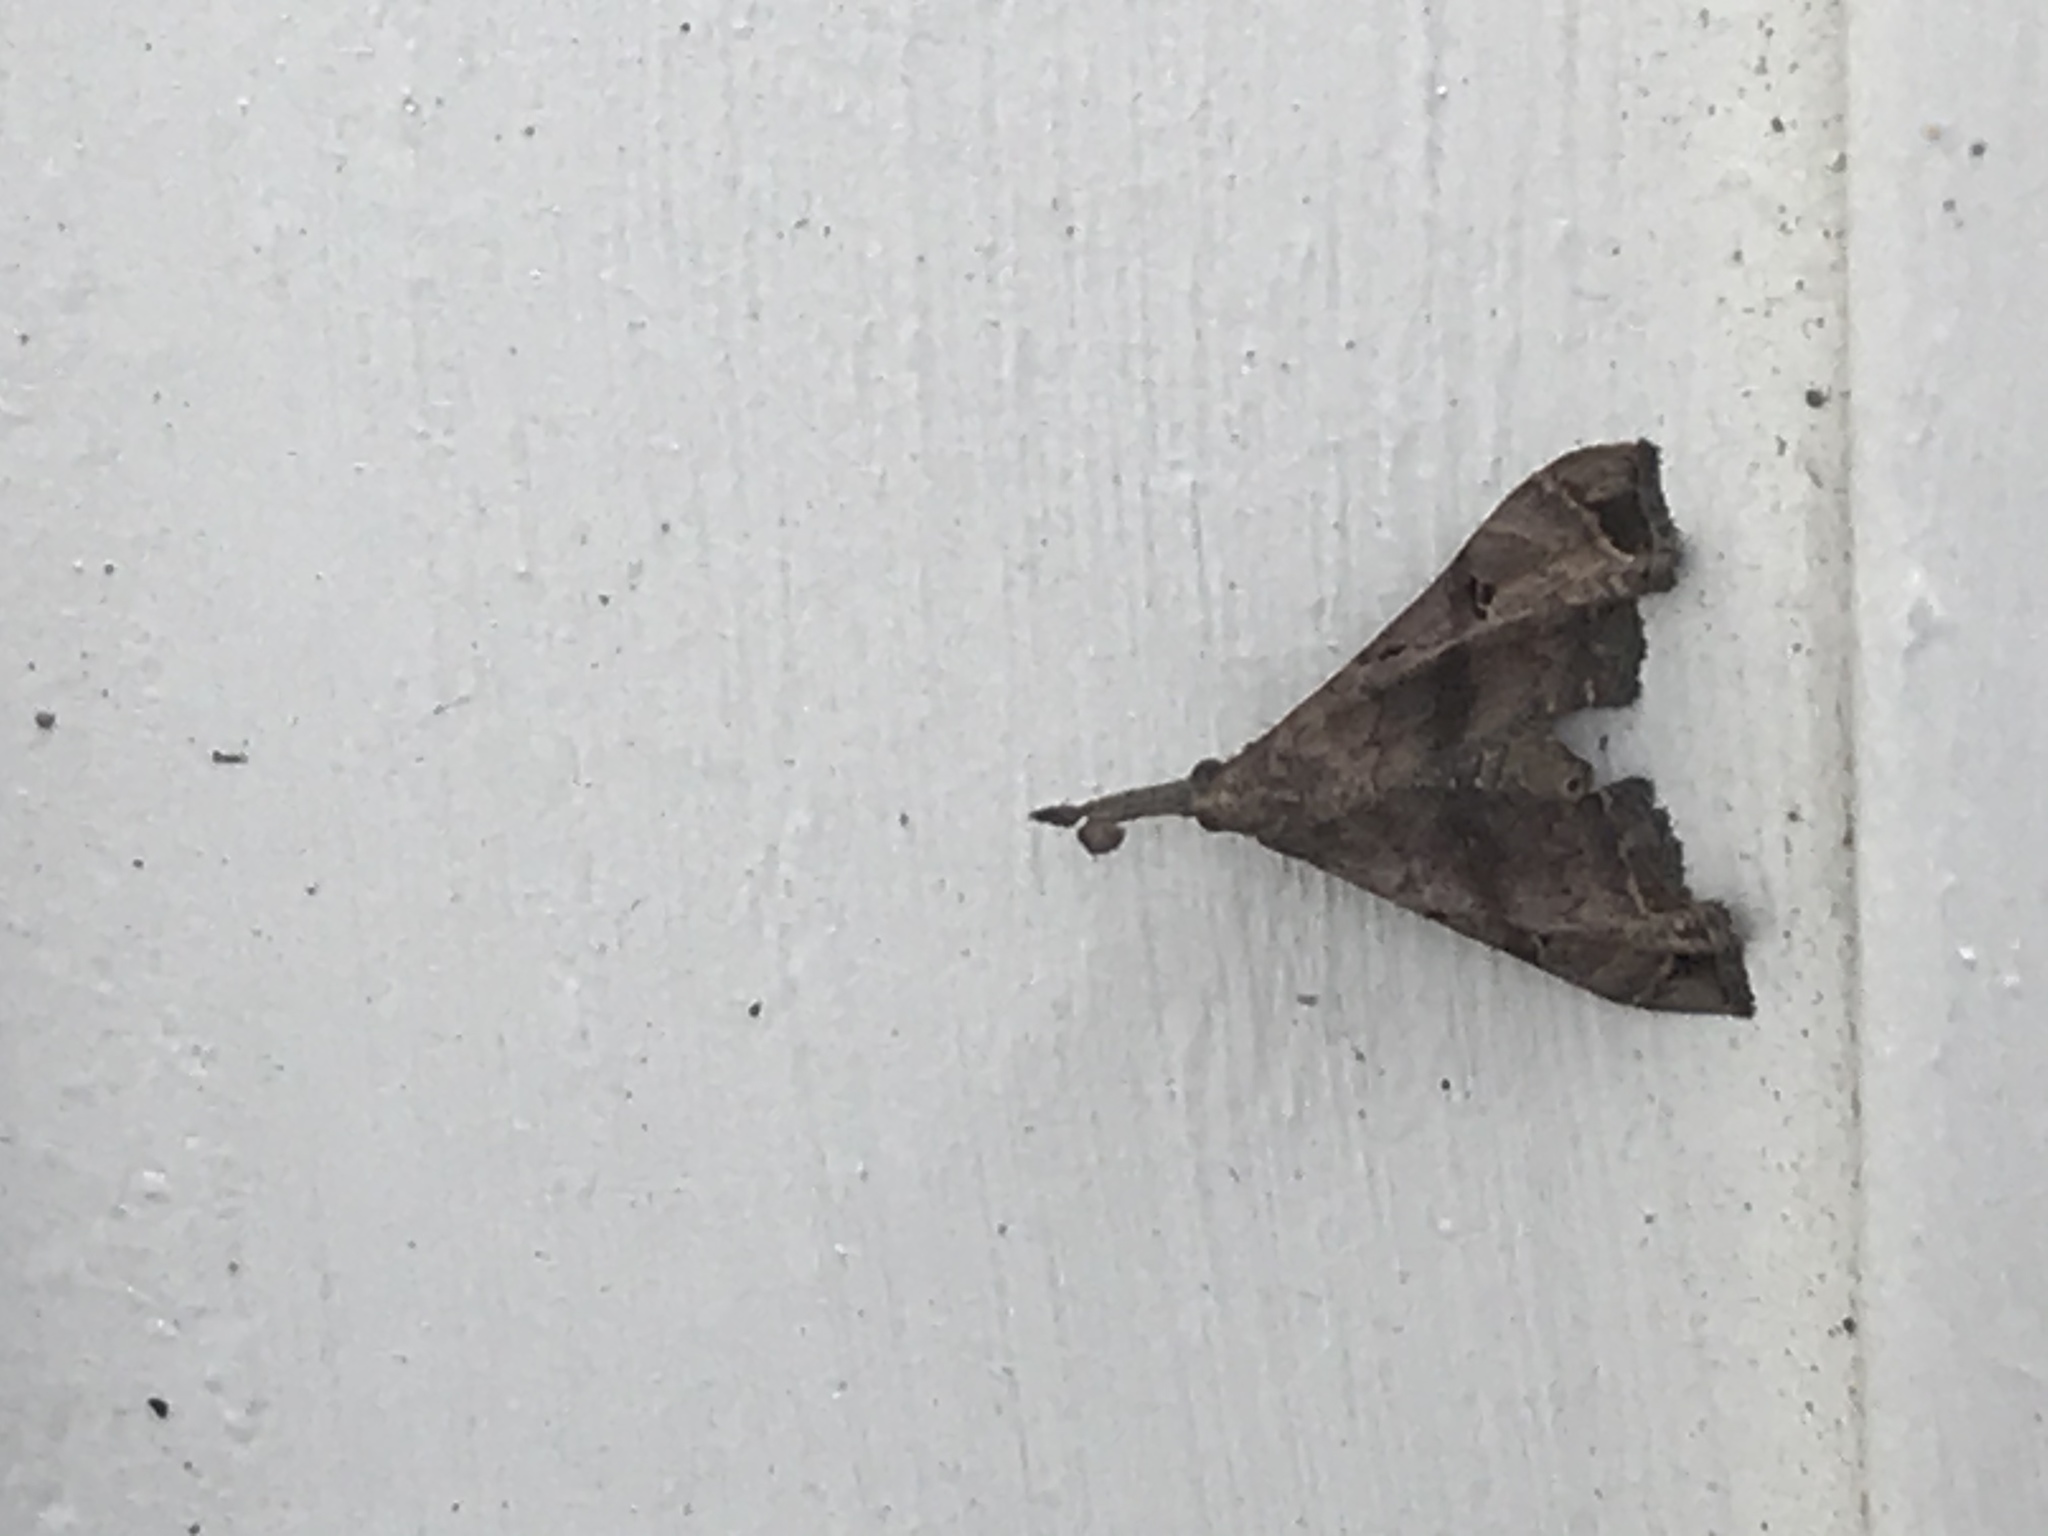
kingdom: Animalia
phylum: Arthropoda
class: Insecta
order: Lepidoptera
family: Erebidae
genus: Palthis
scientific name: Palthis asopialis
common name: Faint-spotted palthis moth
